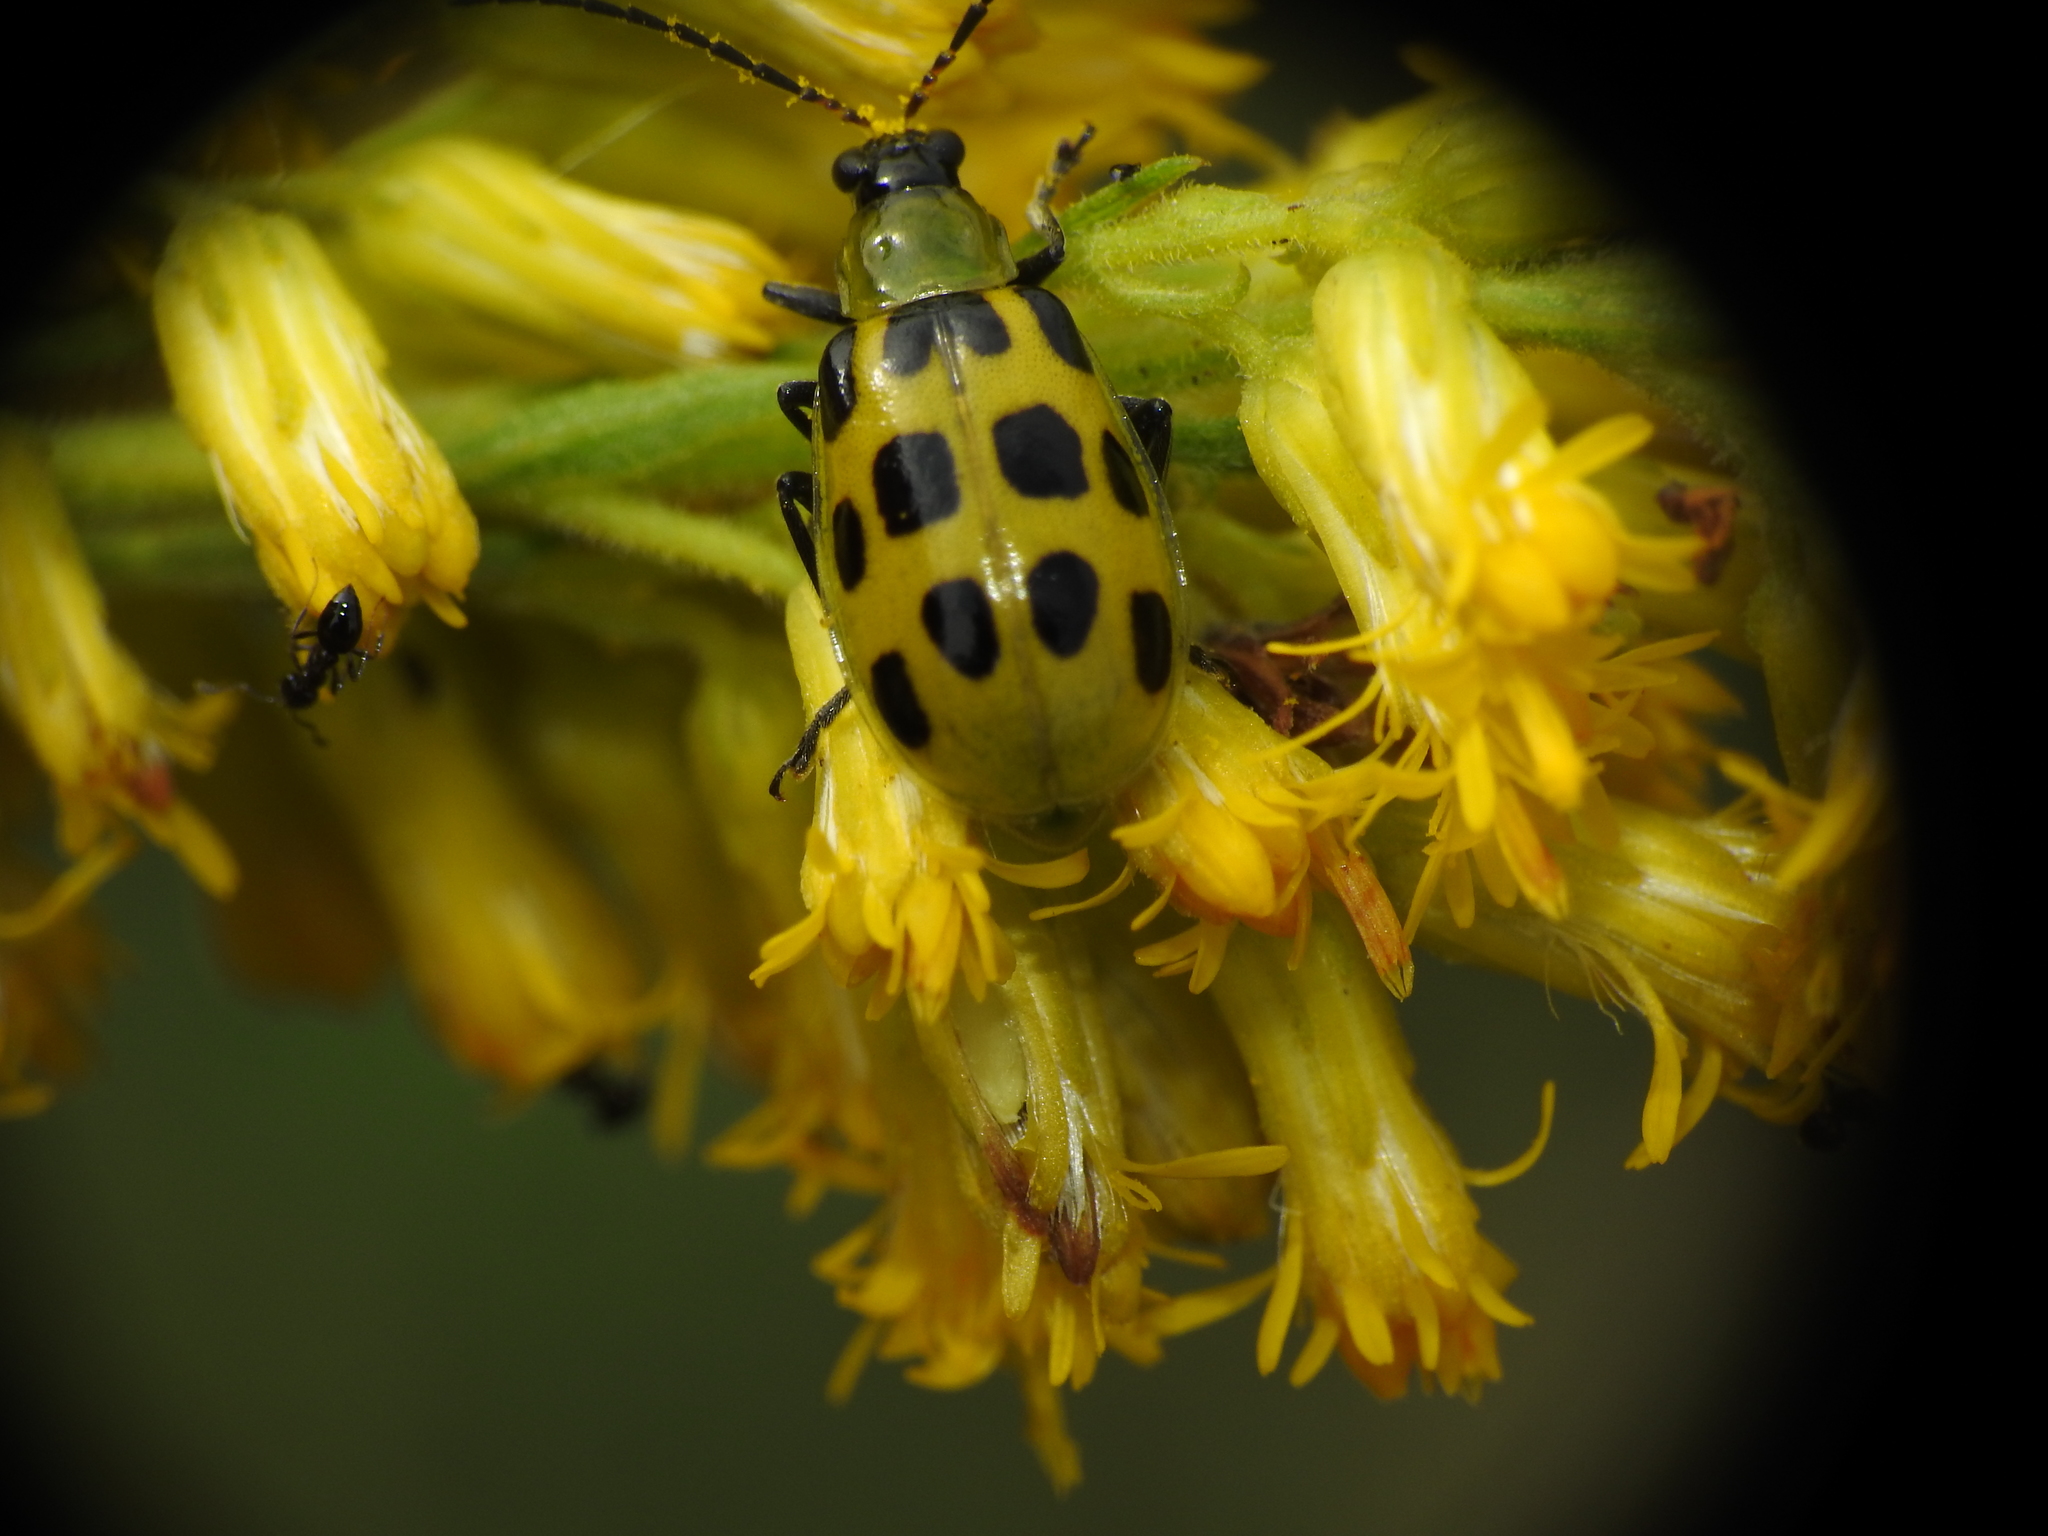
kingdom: Animalia
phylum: Arthropoda
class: Insecta
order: Coleoptera
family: Chrysomelidae
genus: Diabrotica
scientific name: Diabrotica undecimpunctata
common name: Spotted cucumber beetle
